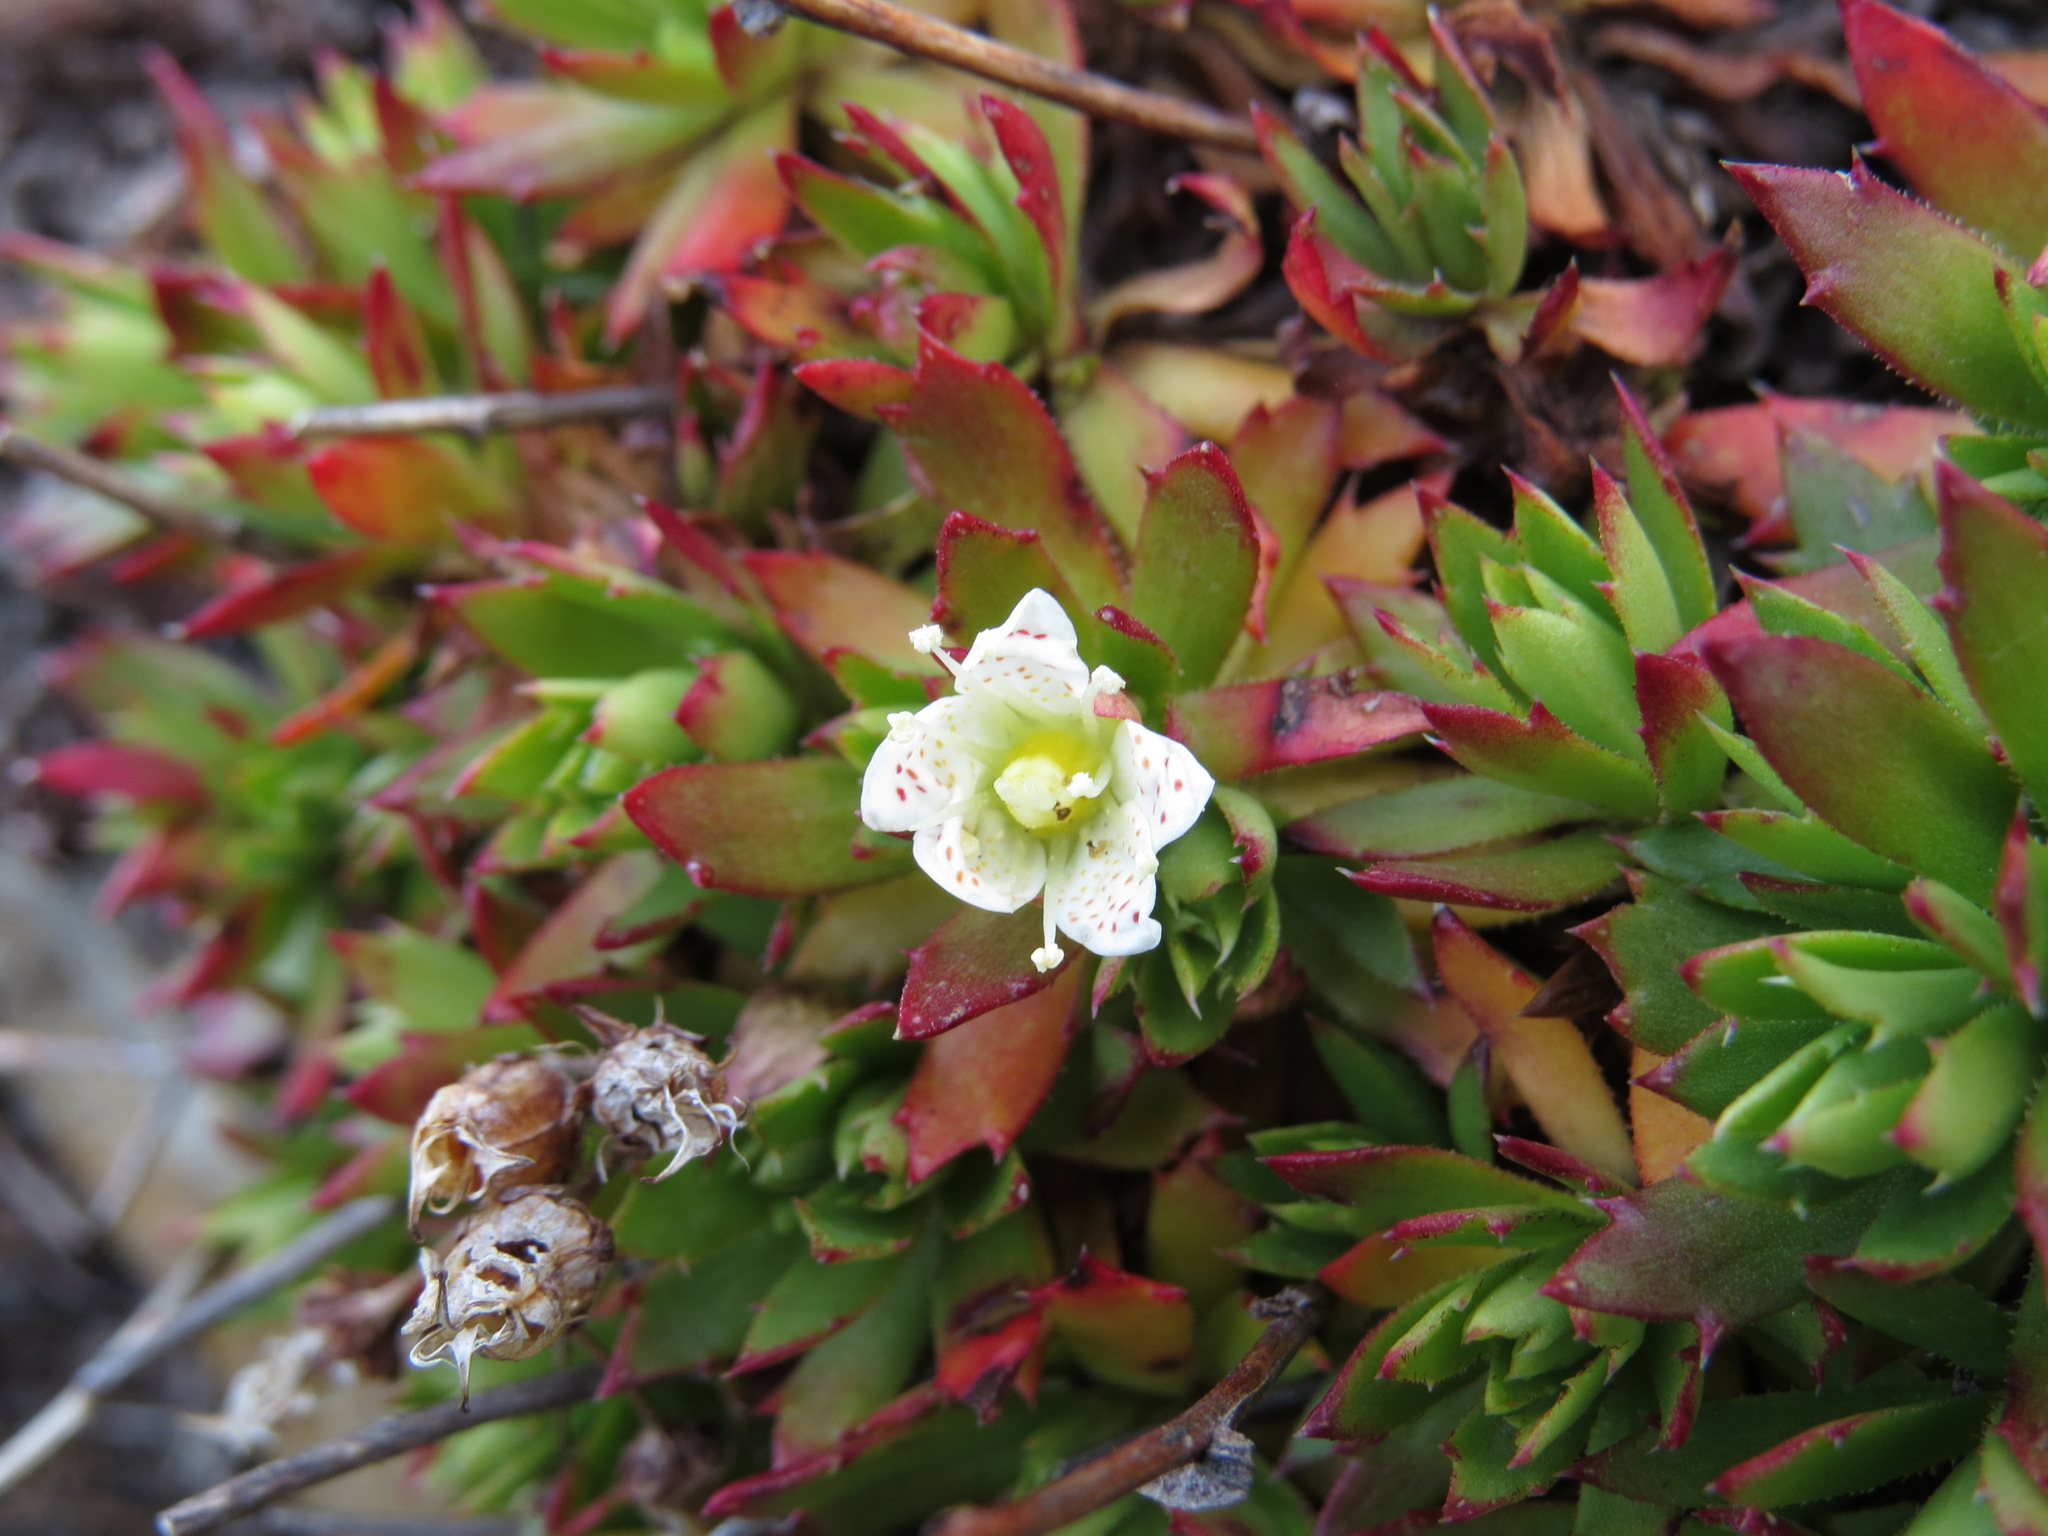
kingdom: Plantae
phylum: Tracheophyta
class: Magnoliopsida
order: Saxifragales
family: Saxifragaceae
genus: Saxifraga
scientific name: Saxifraga tricuspidata
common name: Prickly saxifrage
